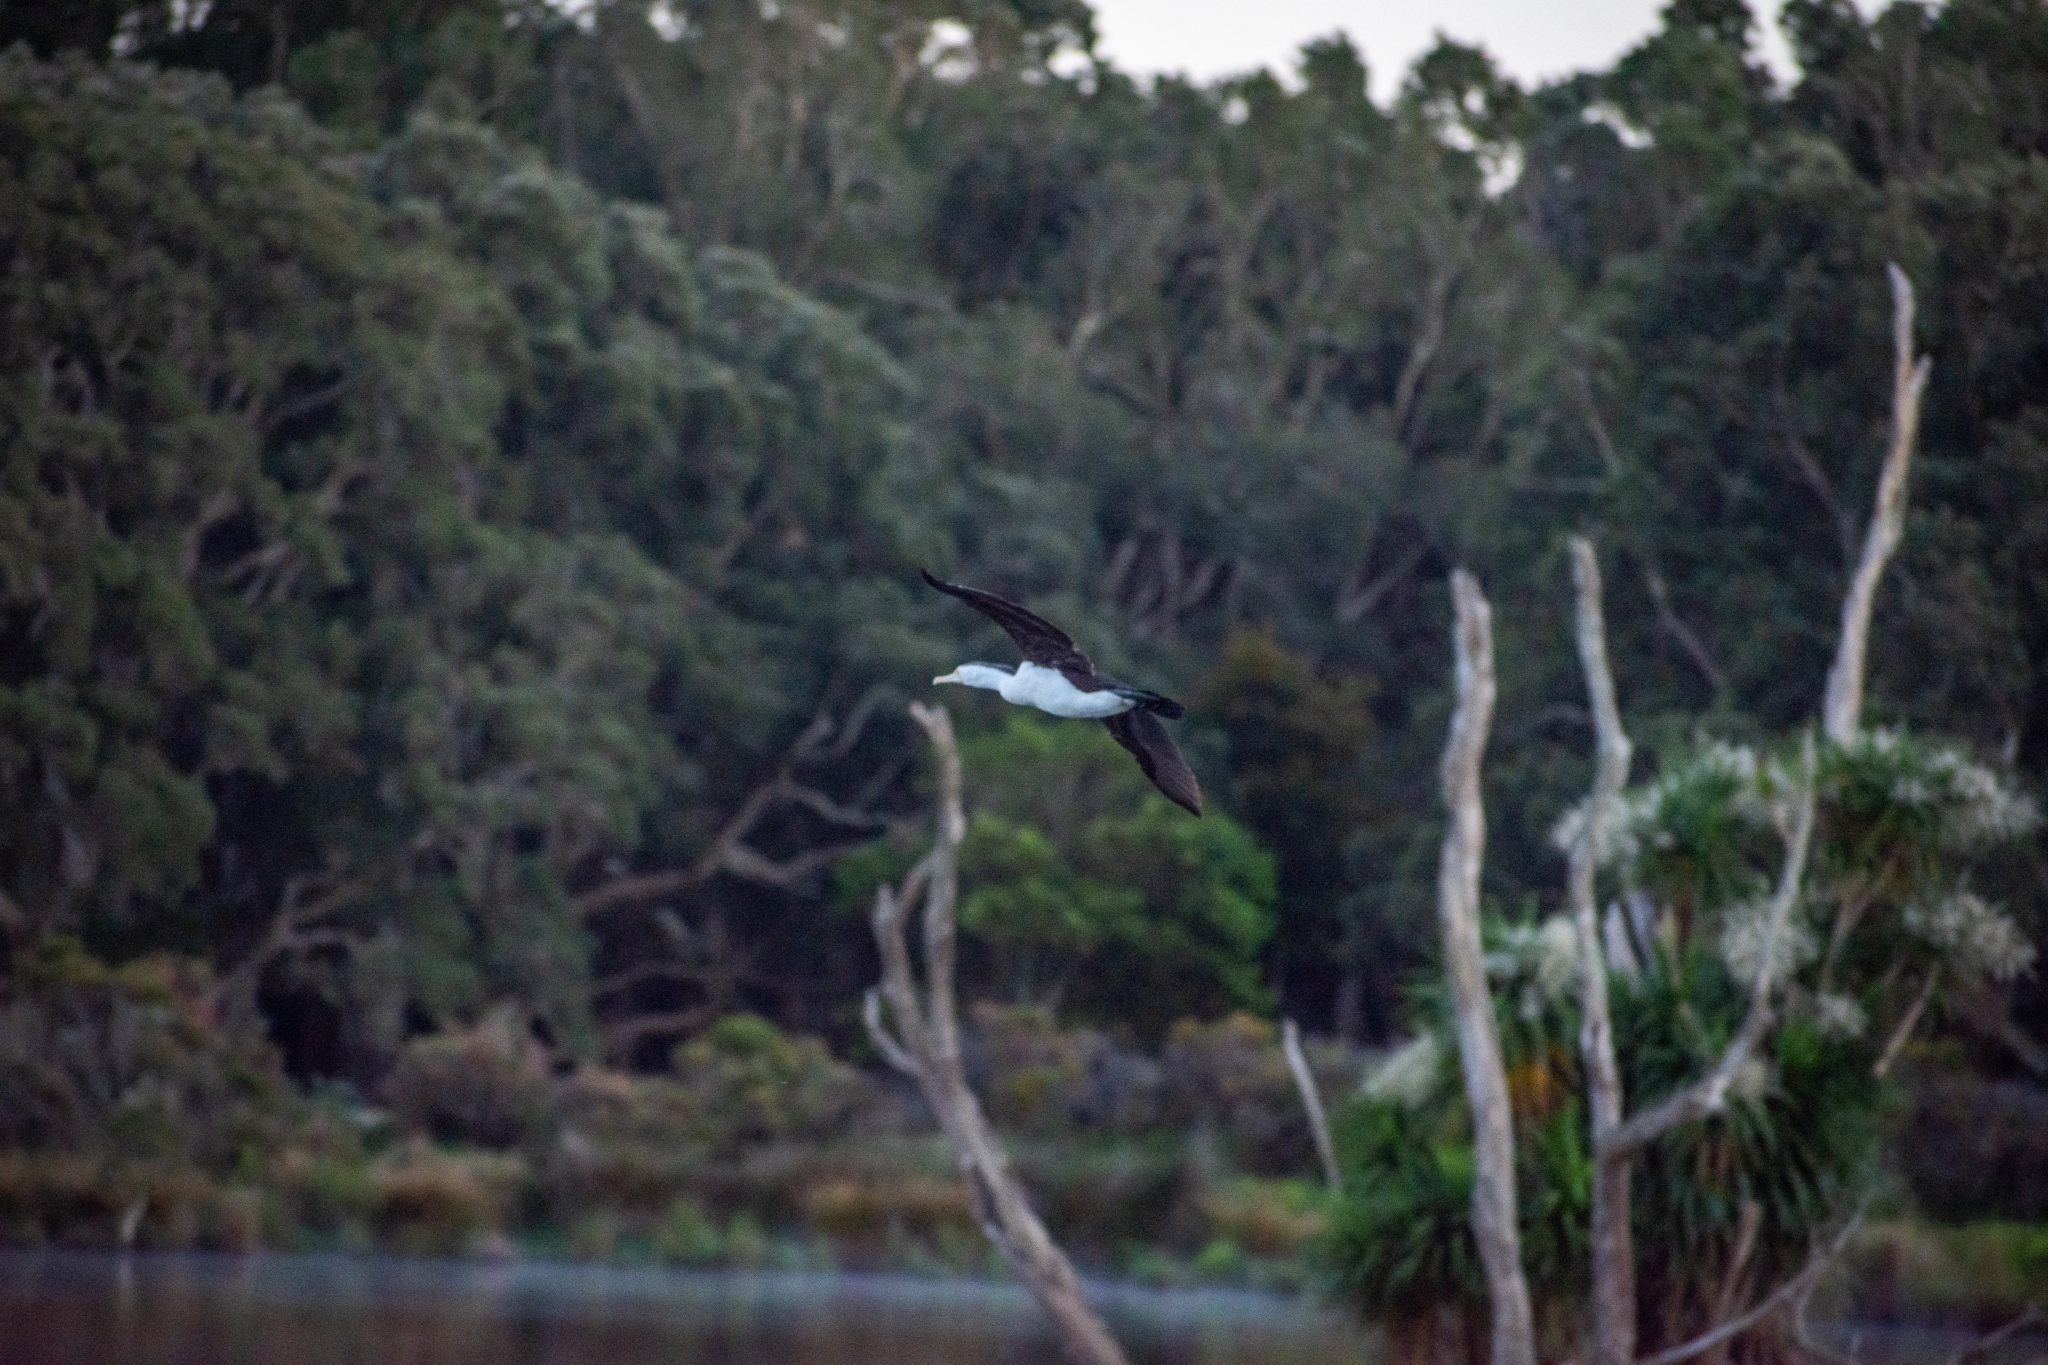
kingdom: Animalia
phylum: Chordata
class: Aves
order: Suliformes
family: Phalacrocoracidae
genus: Phalacrocorax
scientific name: Phalacrocorax varius
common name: Pied cormorant
